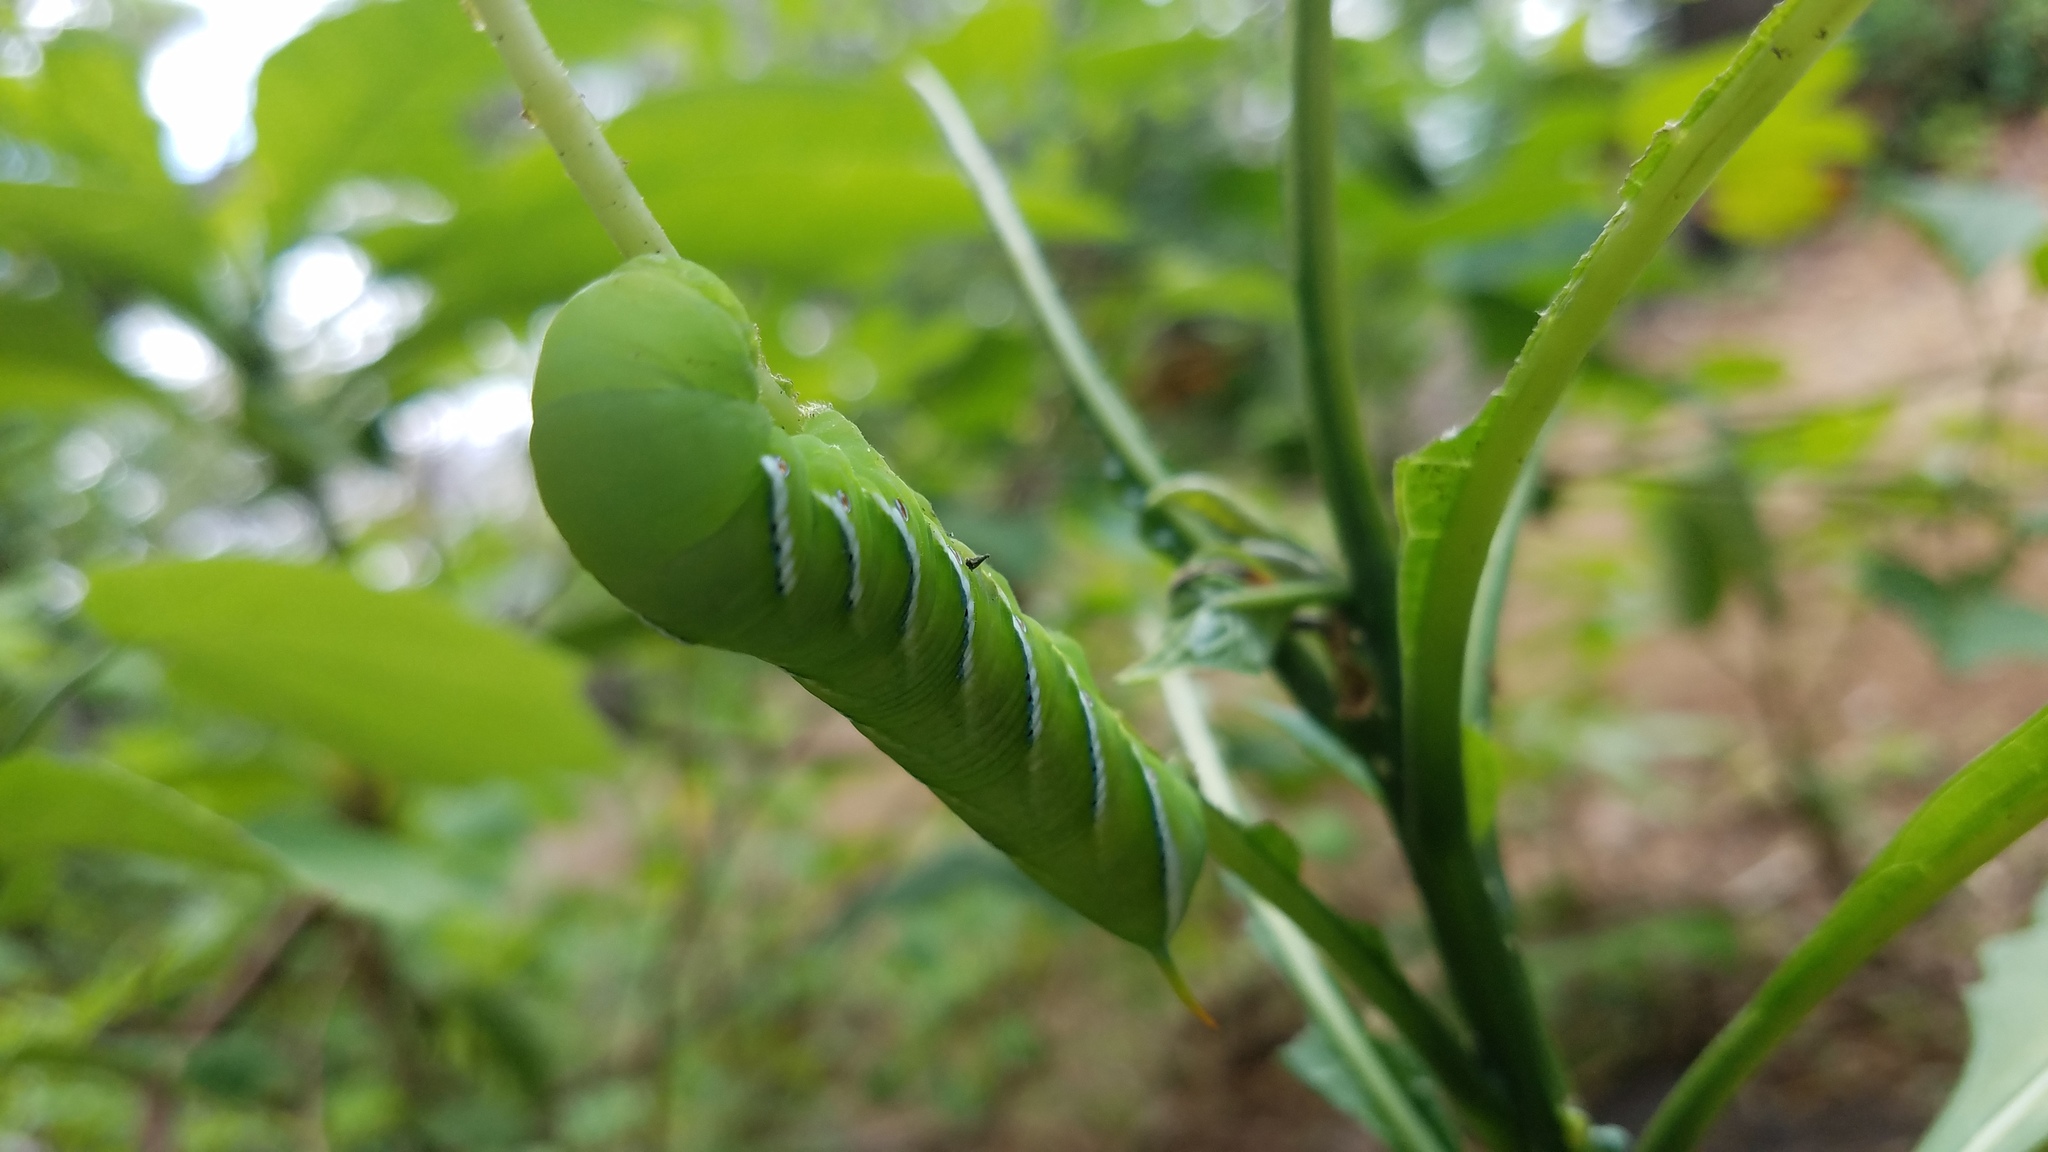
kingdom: Animalia
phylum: Arthropoda
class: Insecta
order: Lepidoptera
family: Sphingidae
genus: Manduca
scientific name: Manduca sexta
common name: Carolina sphinx
